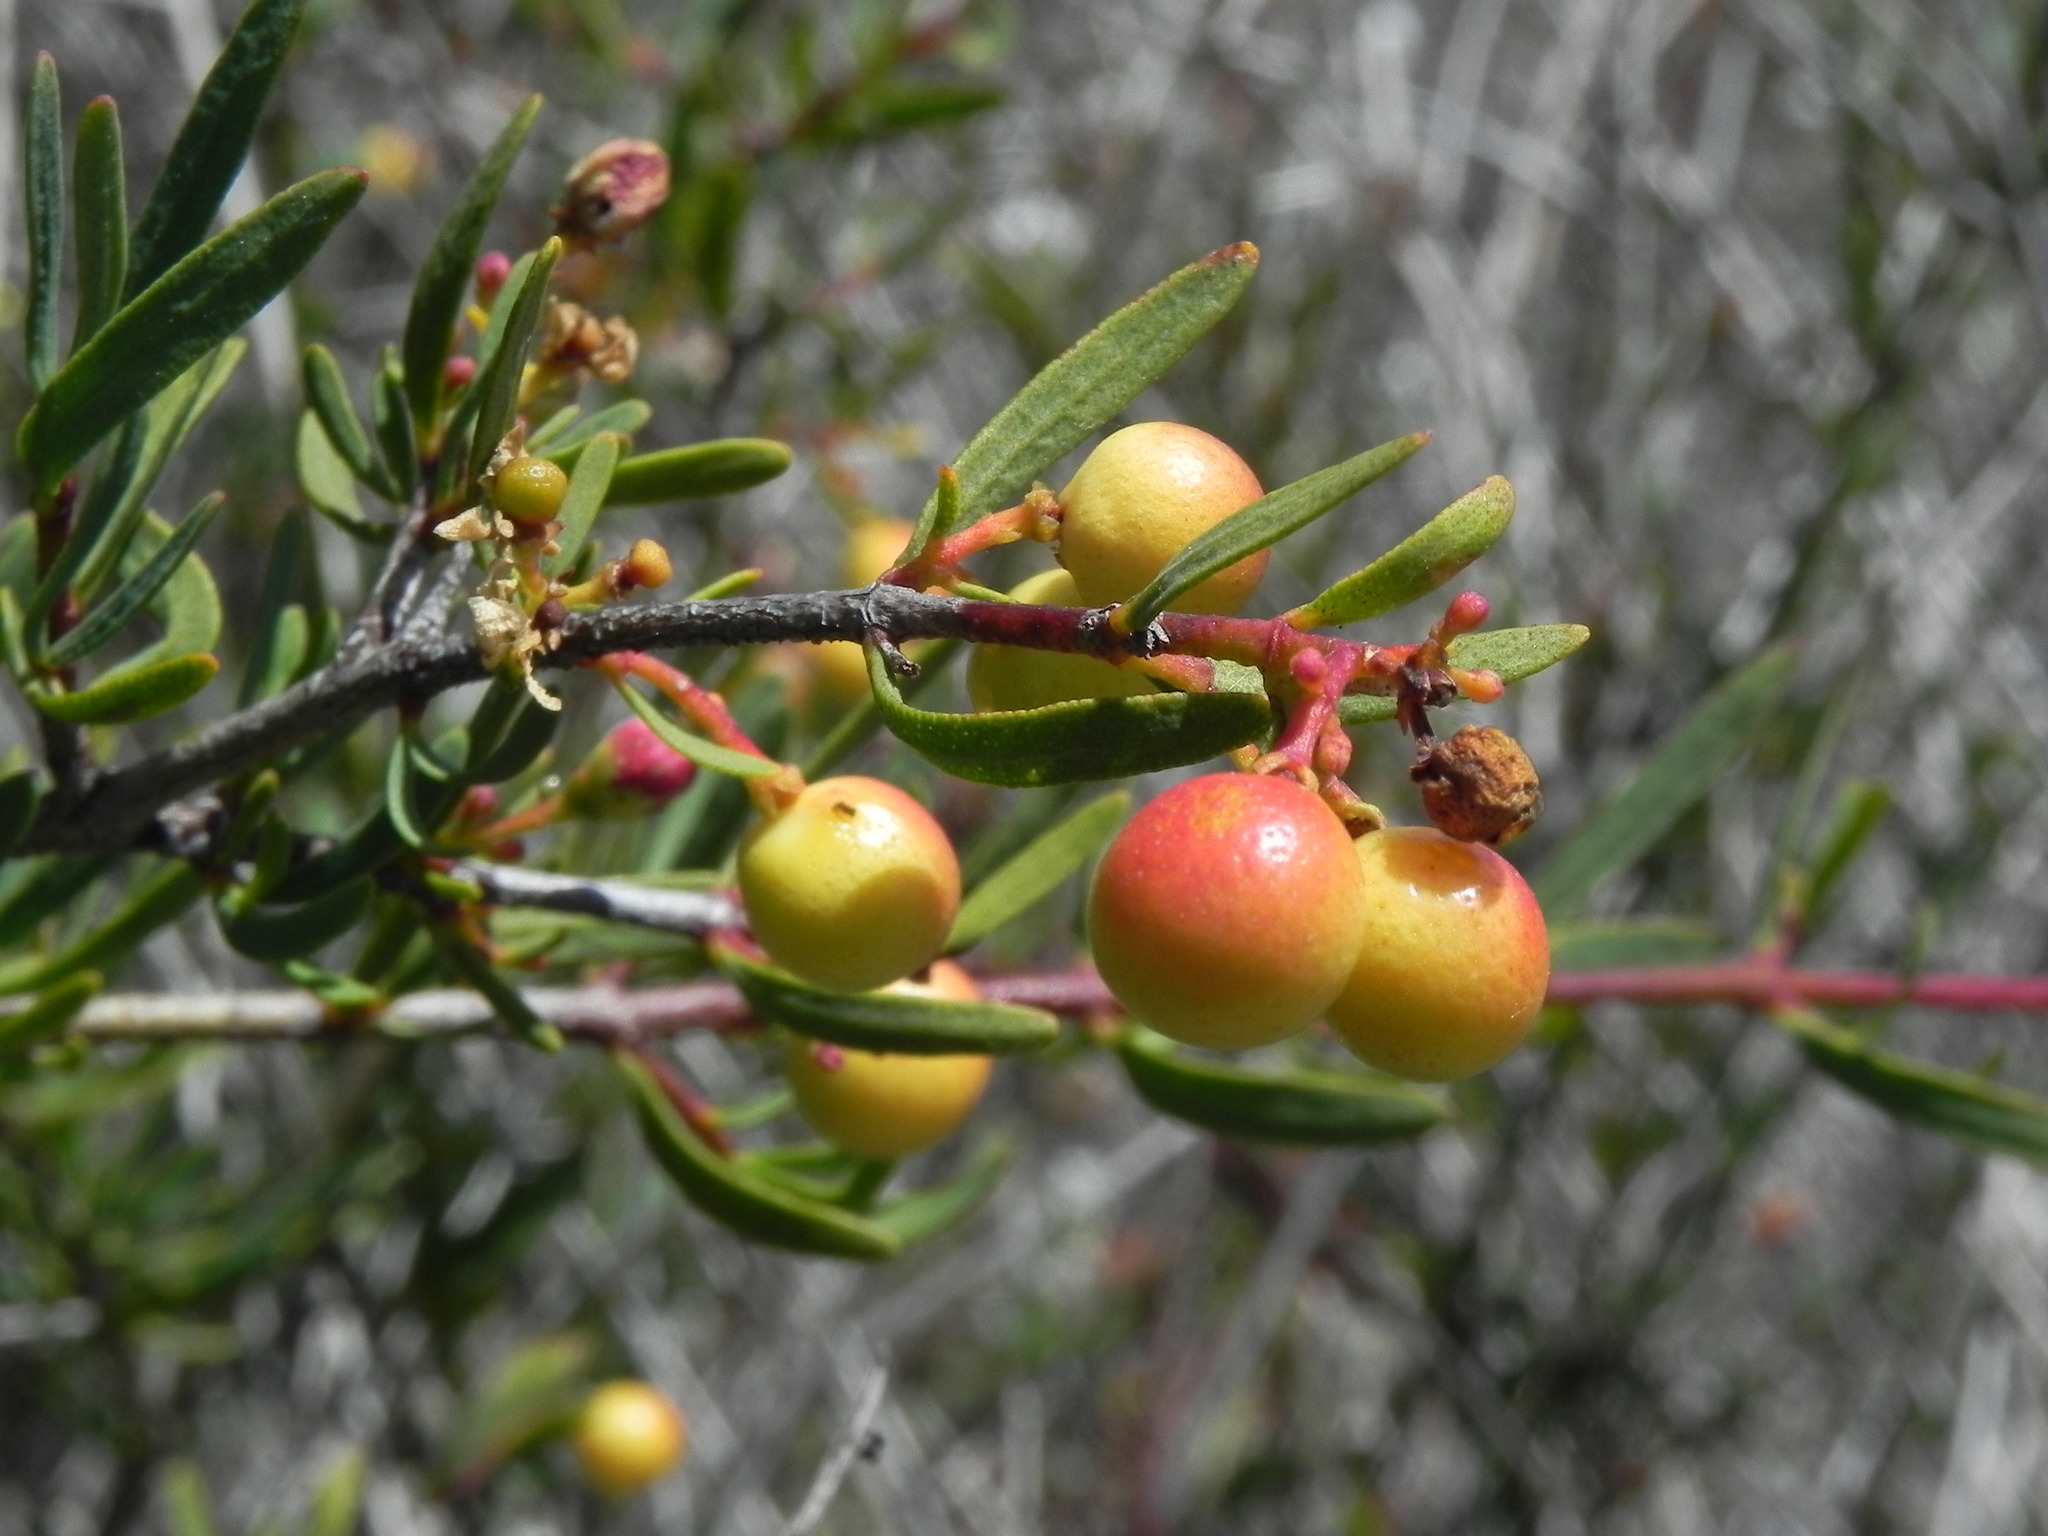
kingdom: Plantae
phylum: Tracheophyta
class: Magnoliopsida
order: Sapindales
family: Rutaceae
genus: Cneoridium
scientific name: Cneoridium dumosum
